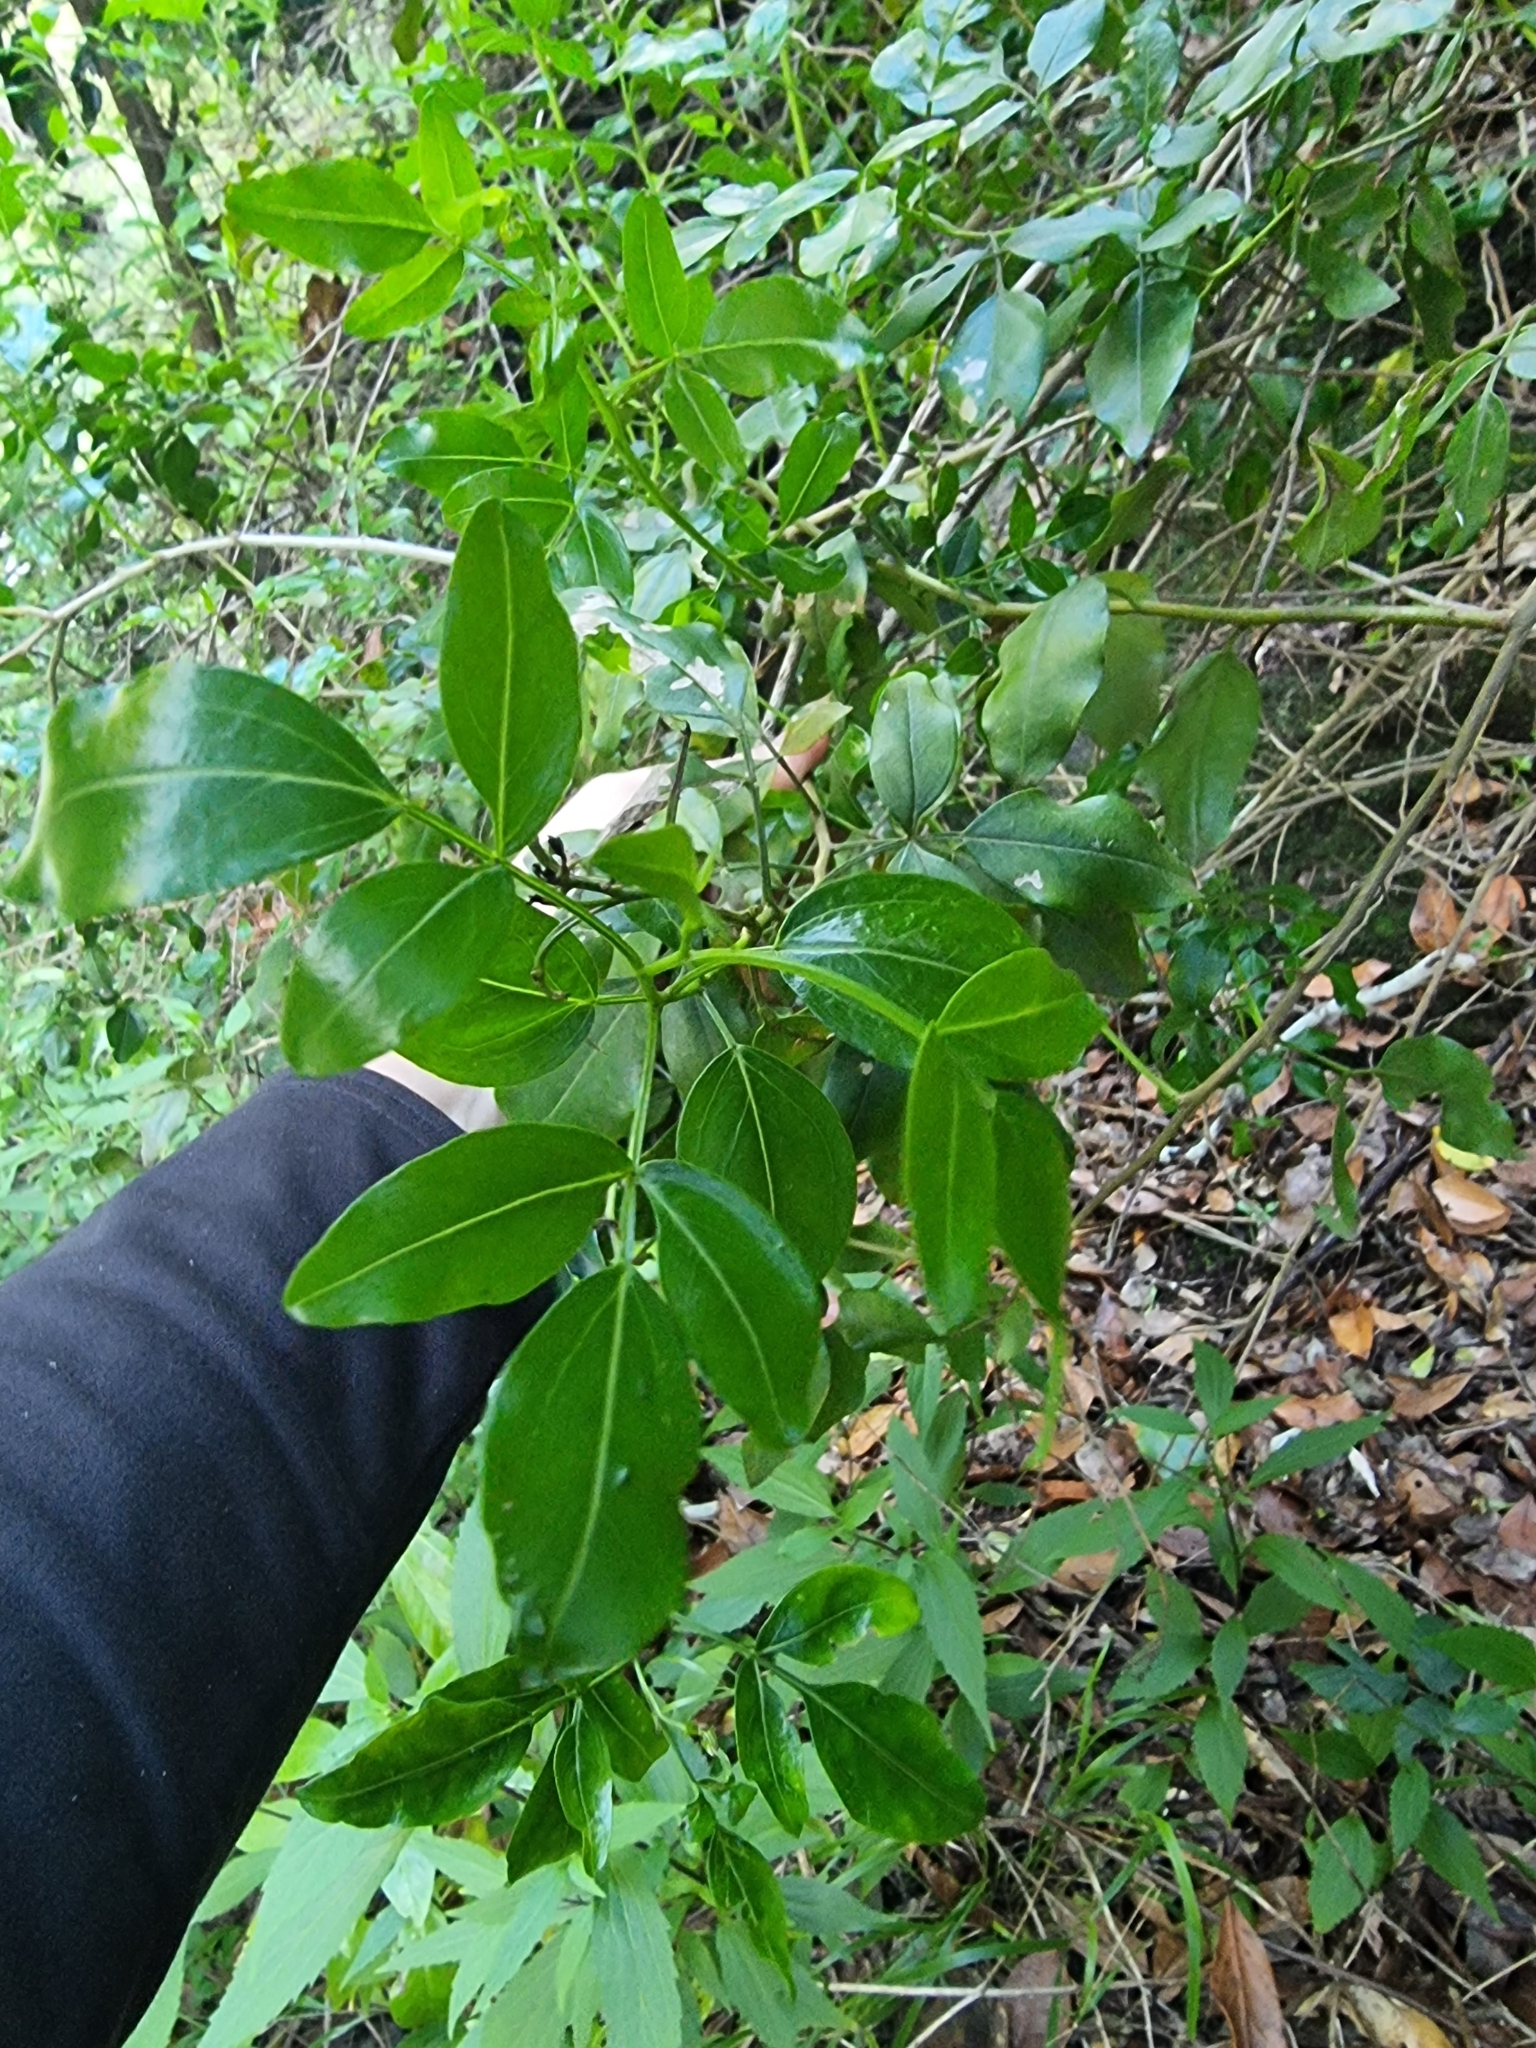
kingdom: Plantae
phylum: Tracheophyta
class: Magnoliopsida
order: Lamiales
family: Oleaceae
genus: Chrysojasminum
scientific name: Chrysojasminum odoratissimum
